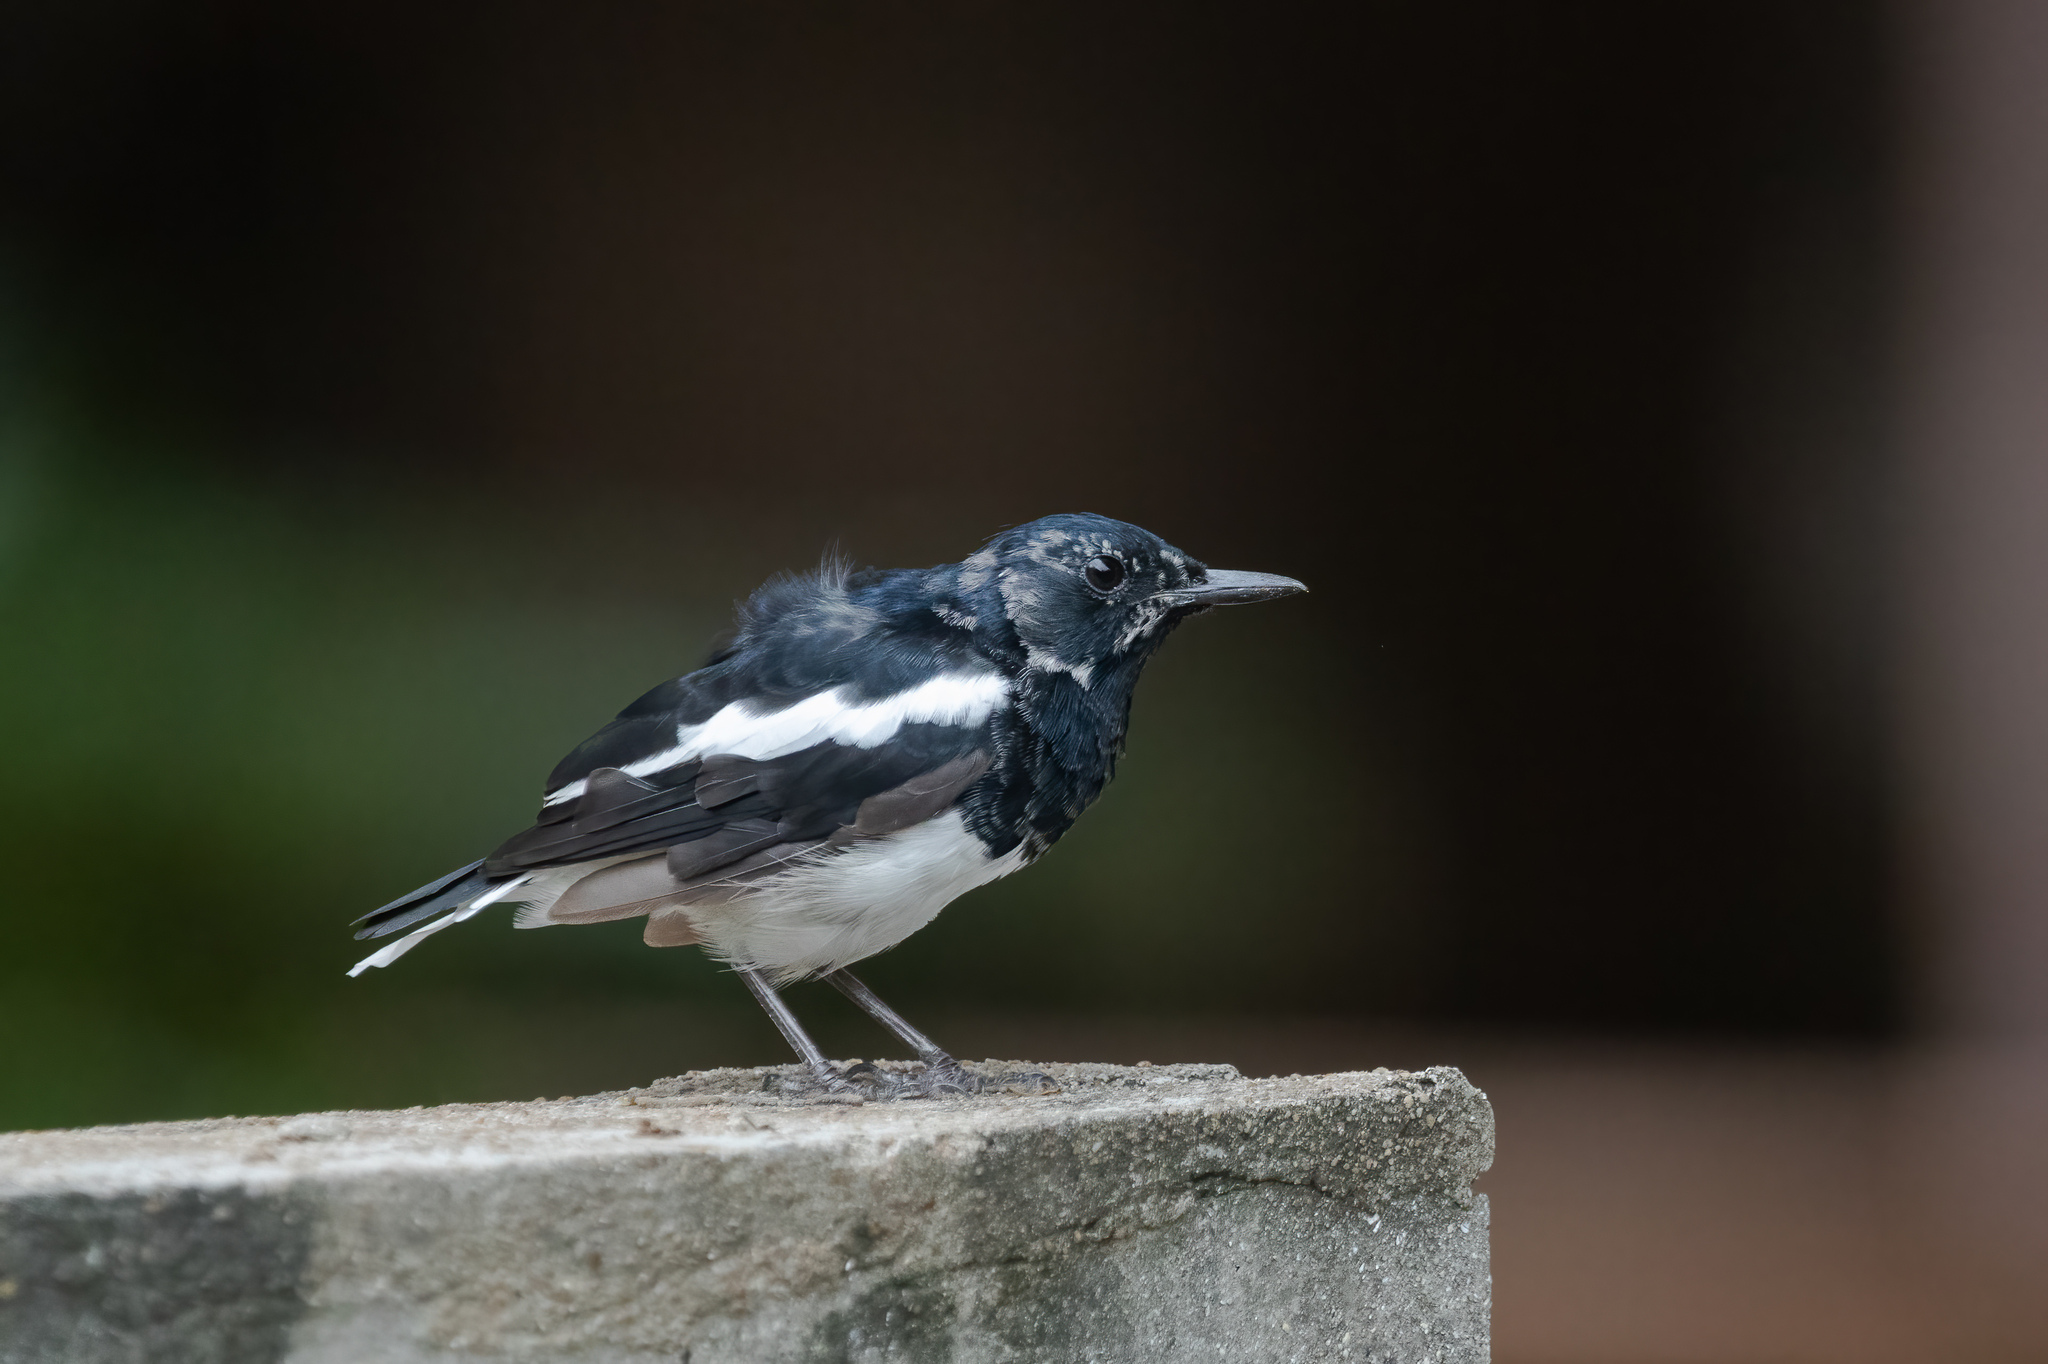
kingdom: Animalia
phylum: Chordata
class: Aves
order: Passeriformes
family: Muscicapidae
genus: Copsychus
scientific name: Copsychus saularis
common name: Oriental magpie-robin
